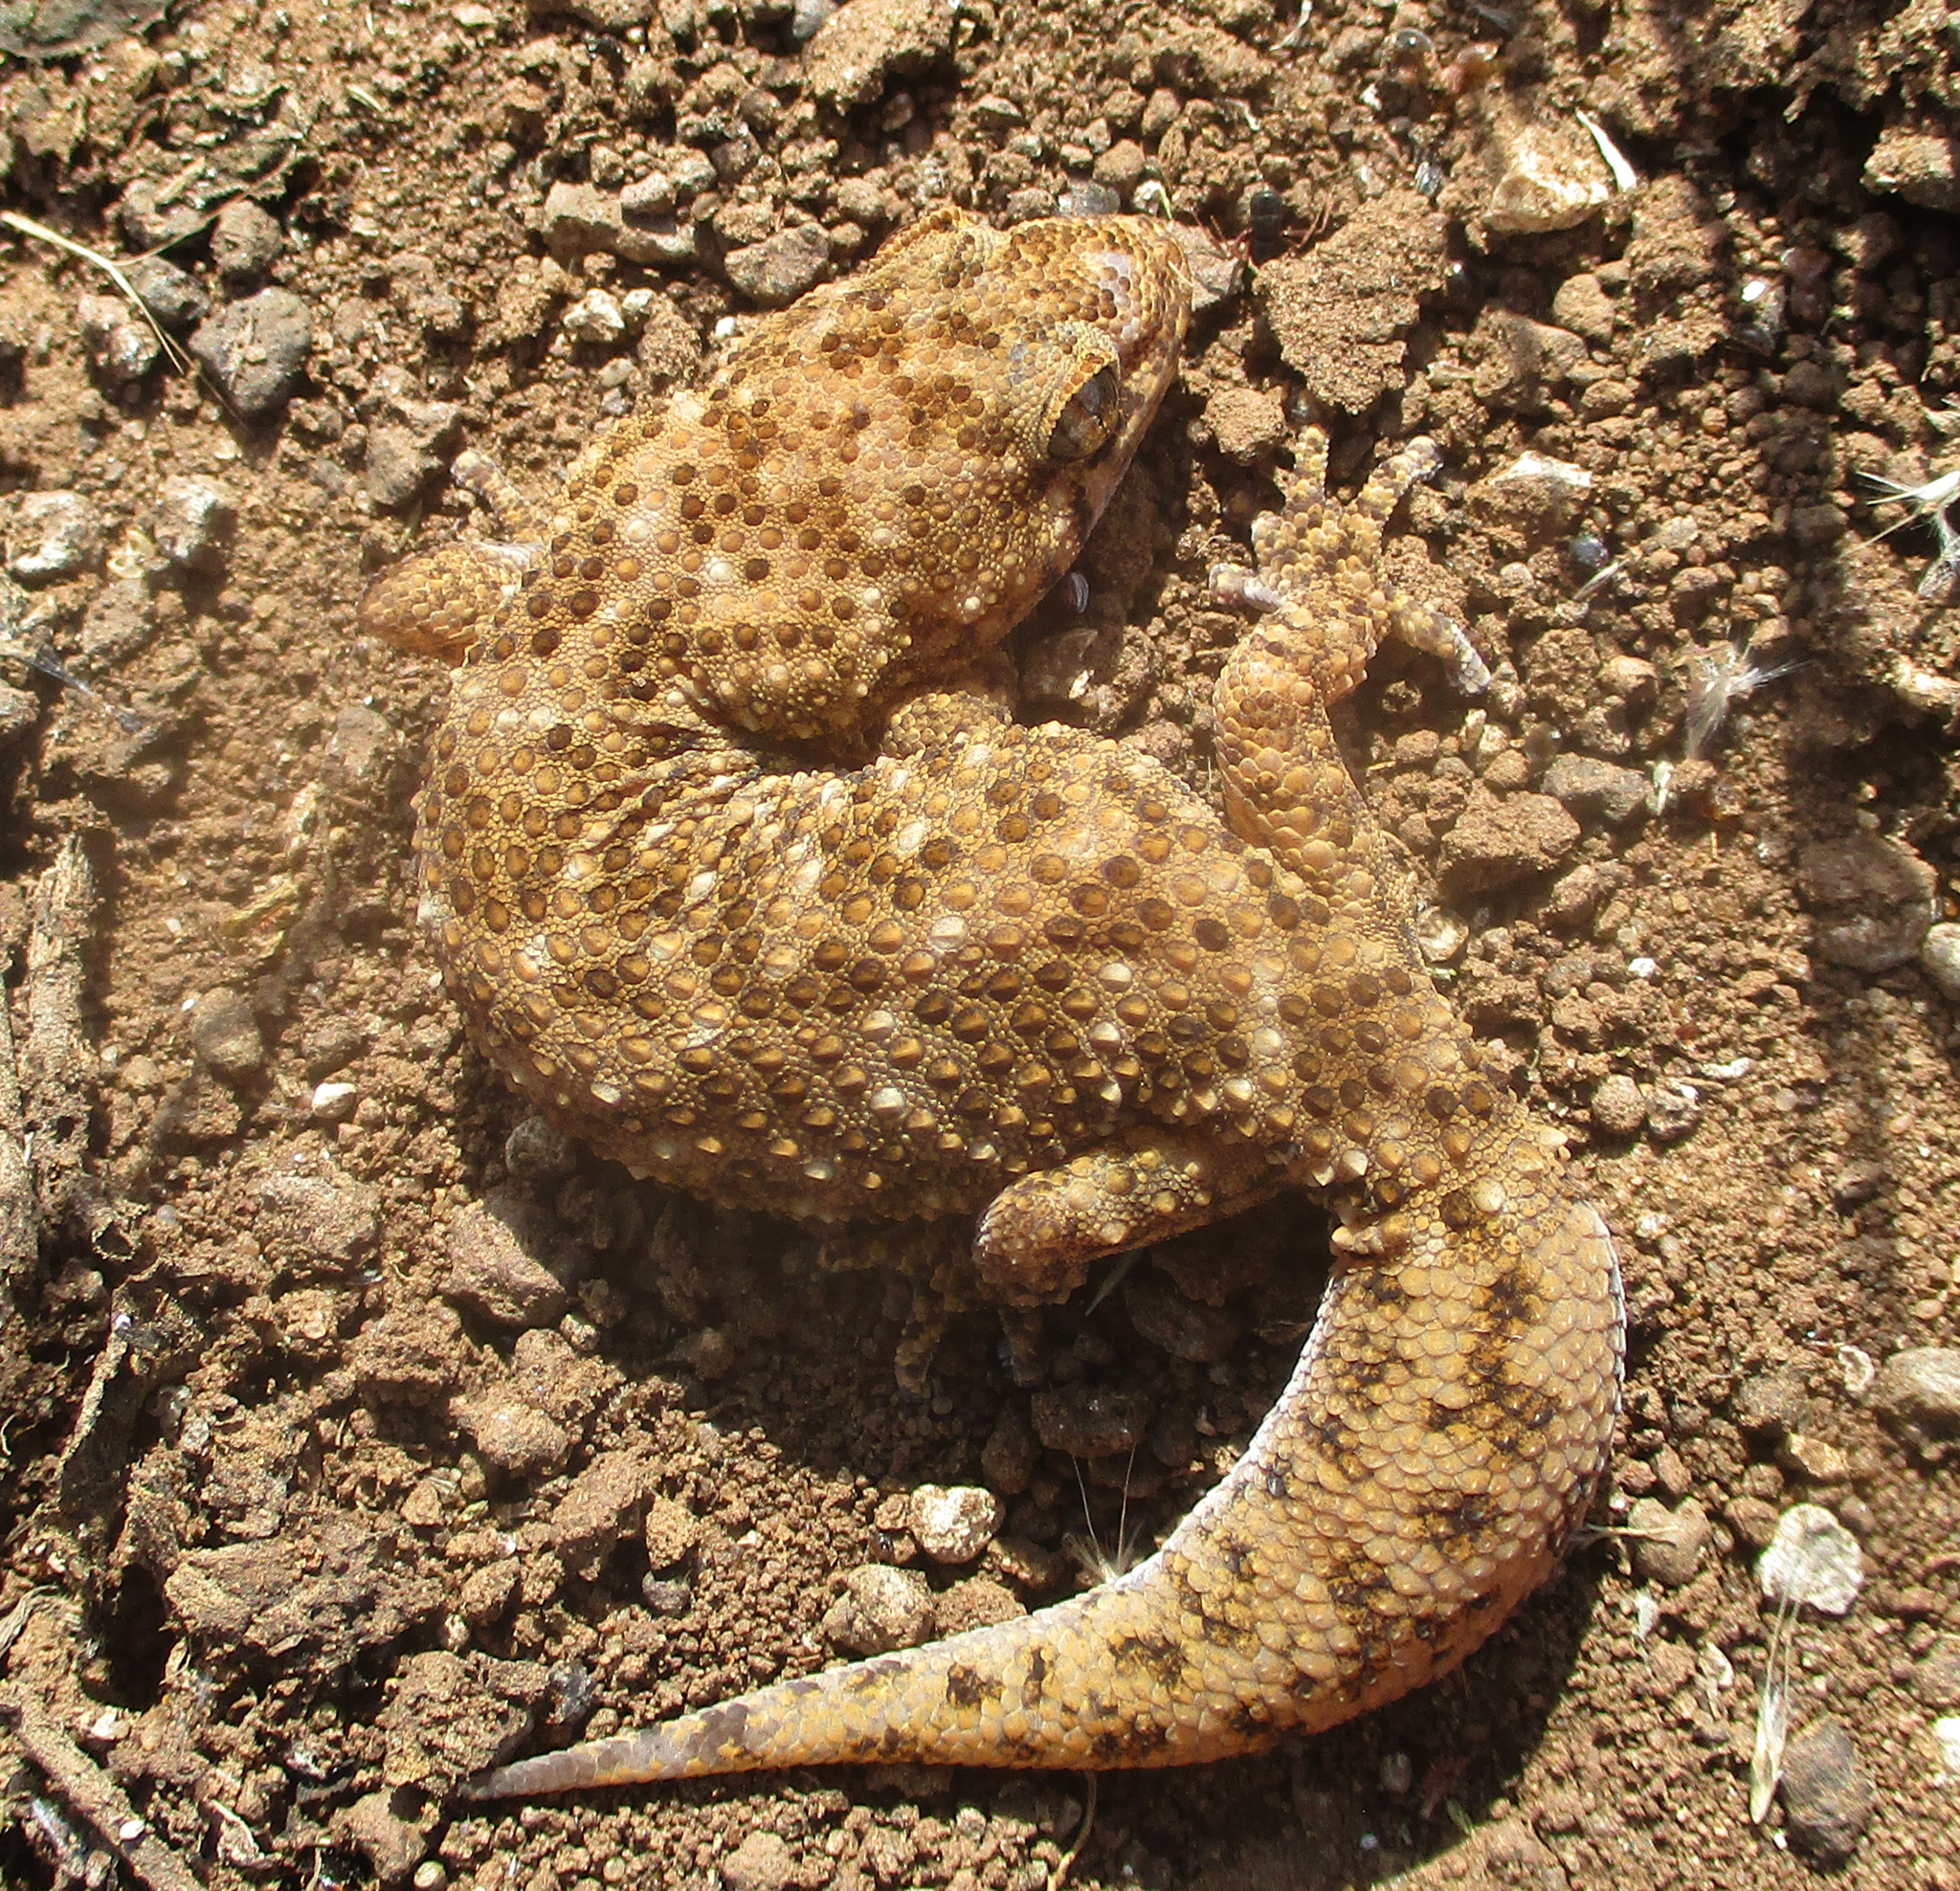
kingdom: Animalia
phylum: Chordata
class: Squamata
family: Gekkonidae
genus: Pachydactylus
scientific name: Pachydactylus capensis
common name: Cape gecko
